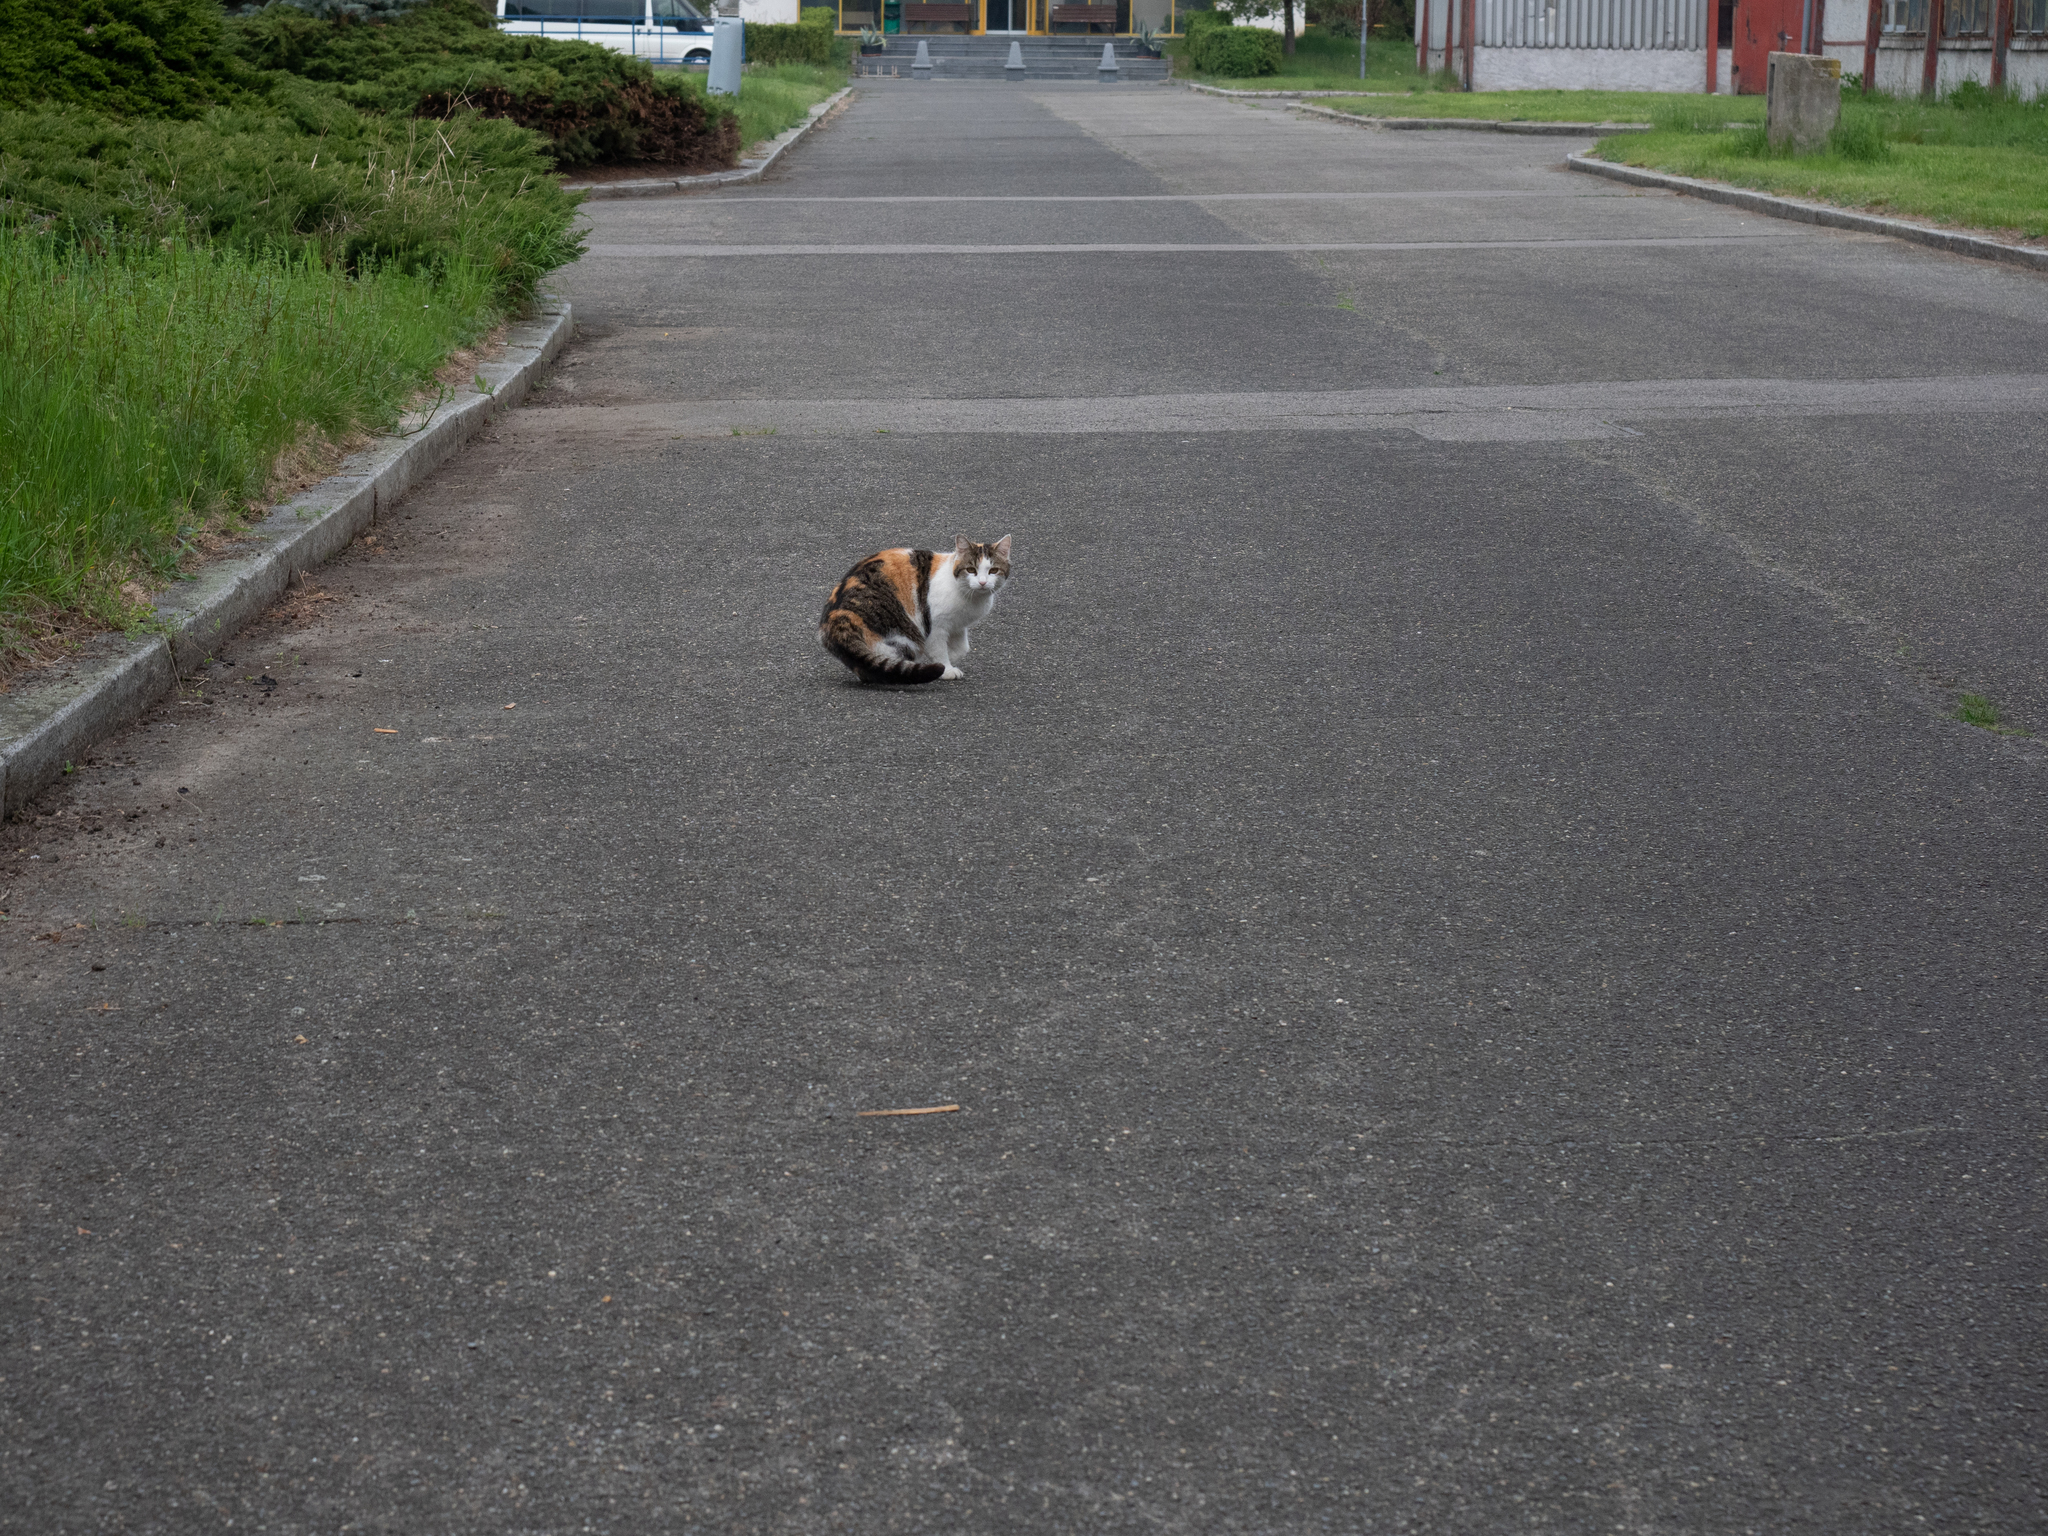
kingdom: Animalia
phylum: Chordata
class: Mammalia
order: Carnivora
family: Felidae
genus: Felis
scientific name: Felis catus
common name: Domestic cat
